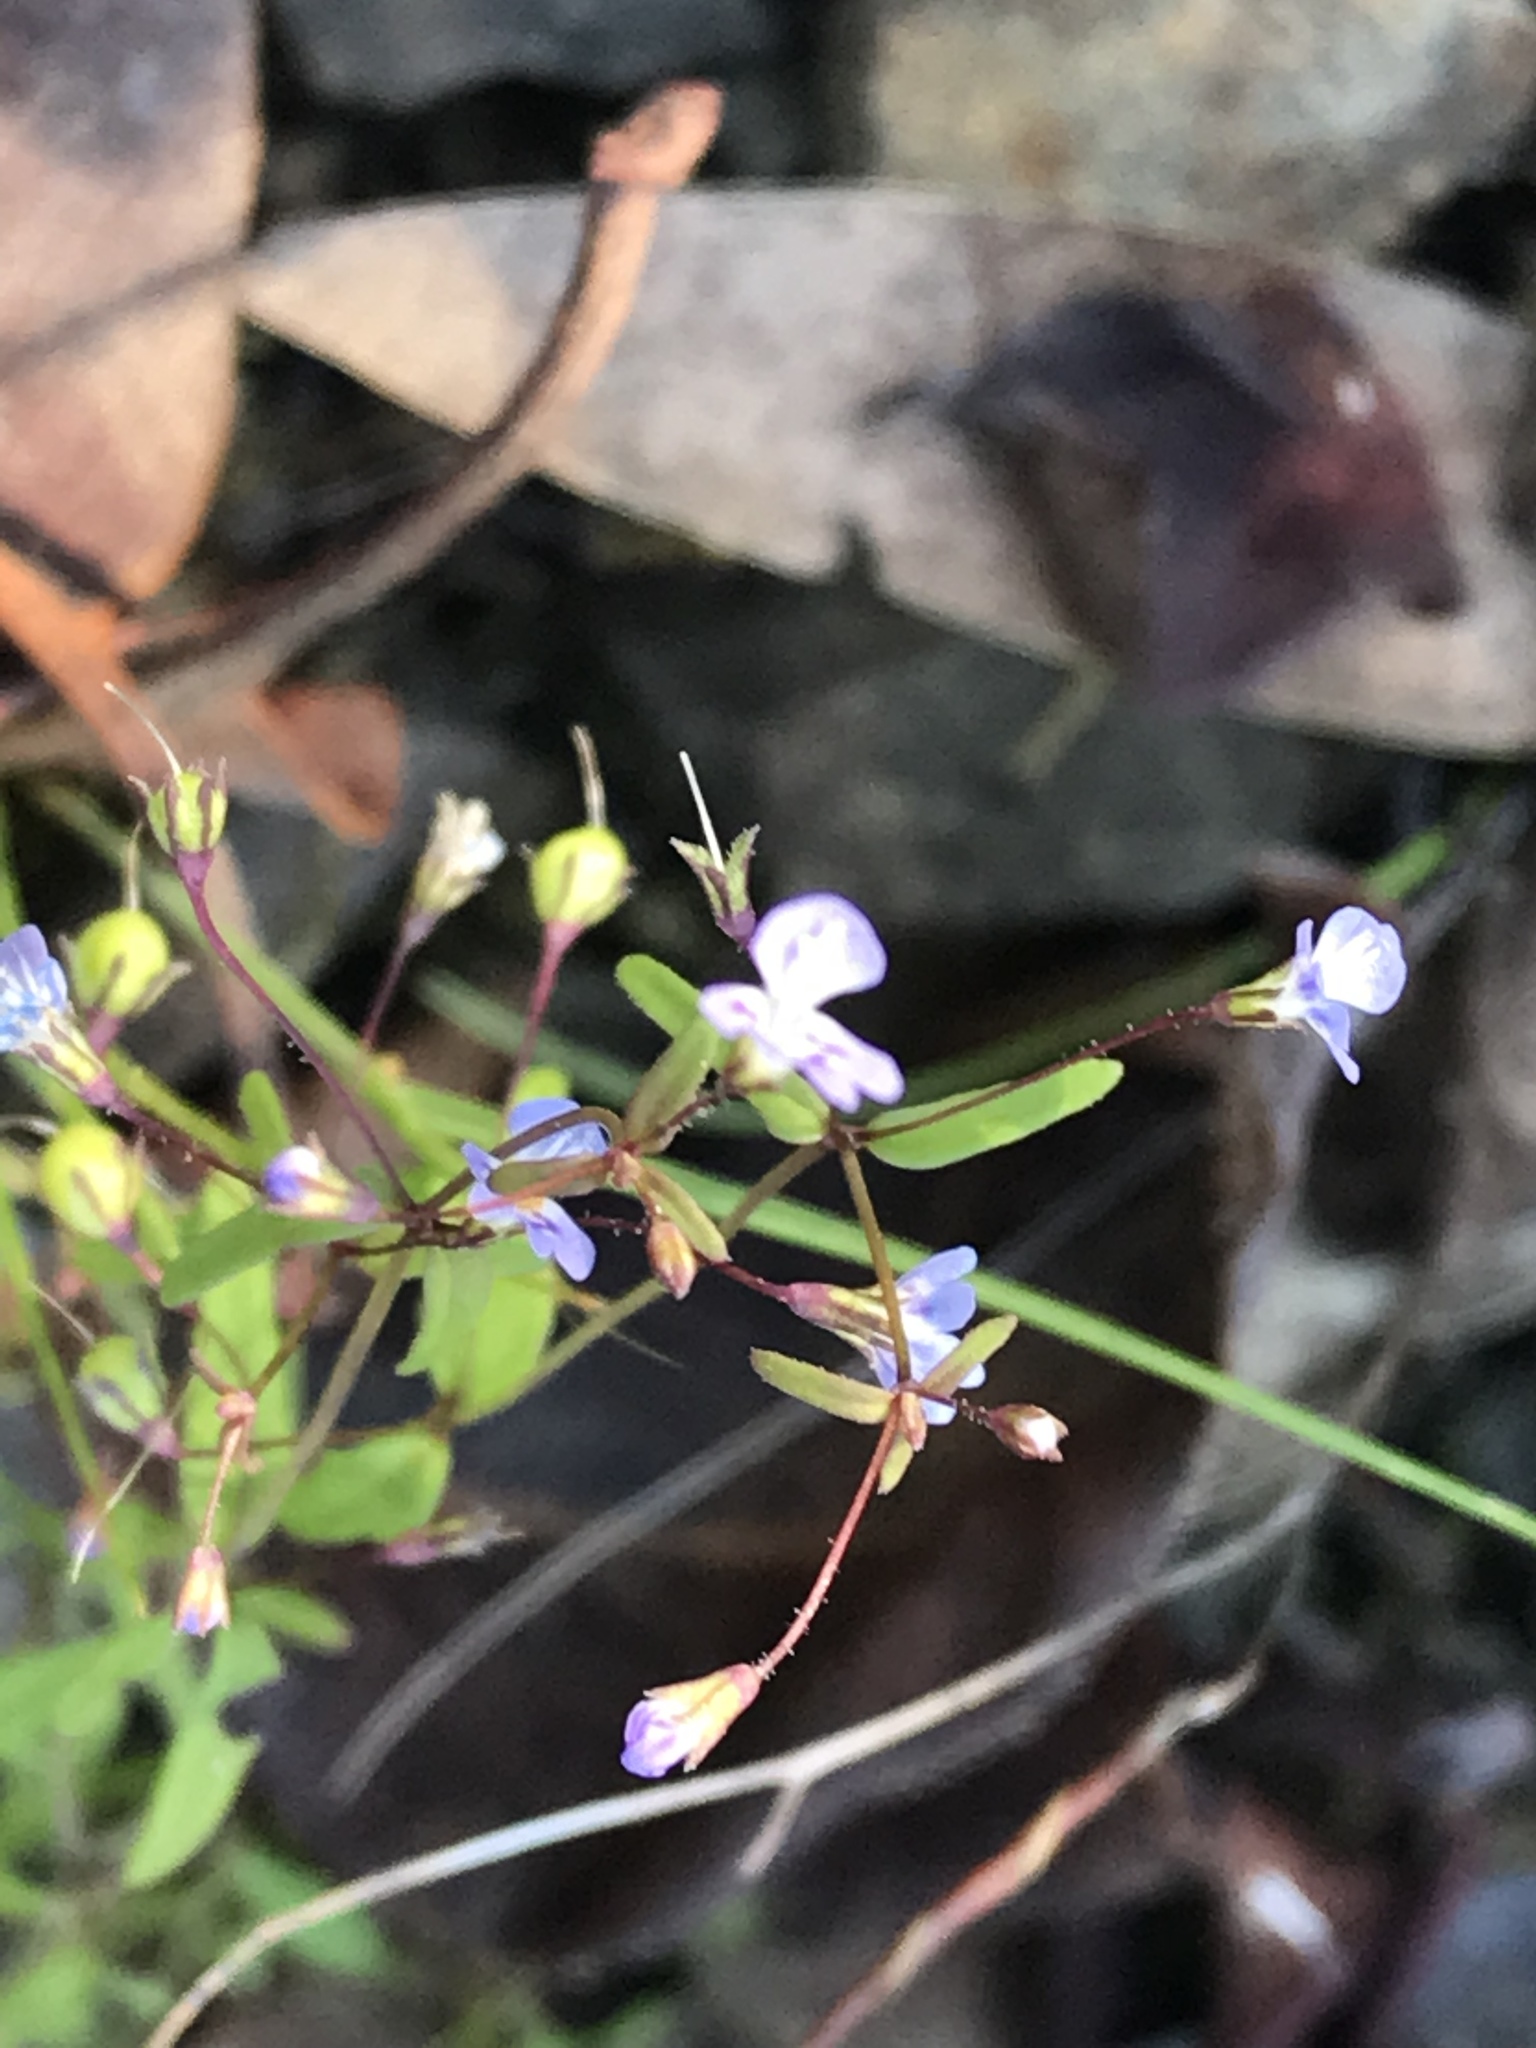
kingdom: Plantae
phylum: Tracheophyta
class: Magnoliopsida
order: Lamiales
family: Plantaginaceae
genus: Tonella
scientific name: Tonella tenella
